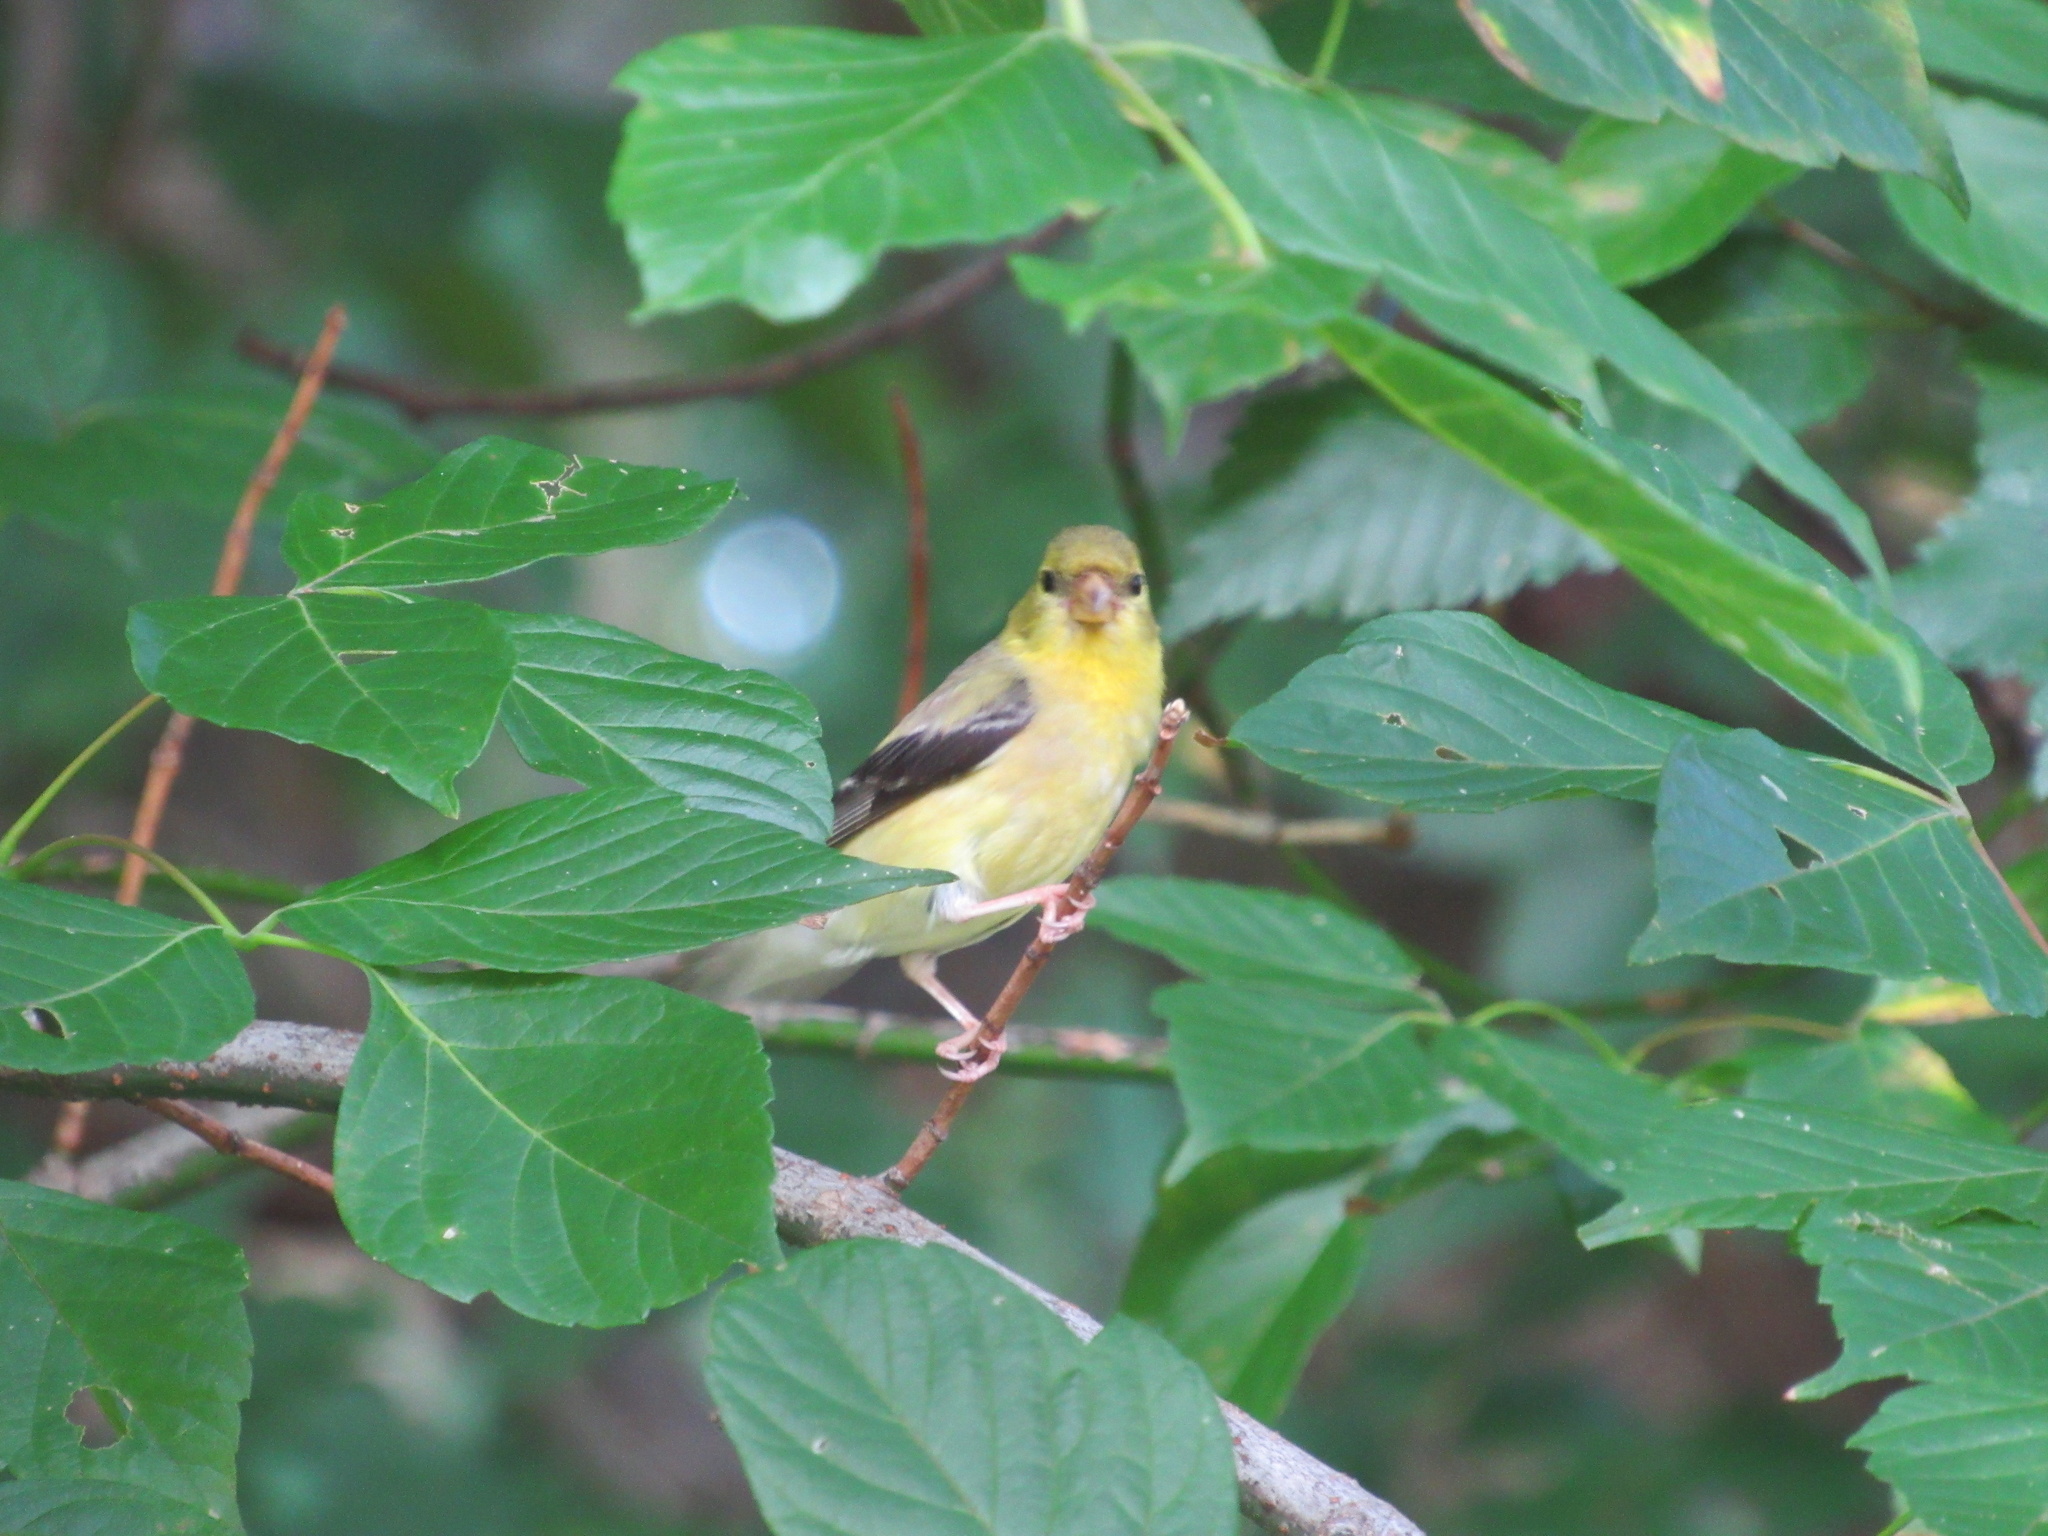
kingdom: Animalia
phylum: Chordata
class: Aves
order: Passeriformes
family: Fringillidae
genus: Spinus
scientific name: Spinus tristis
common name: American goldfinch
